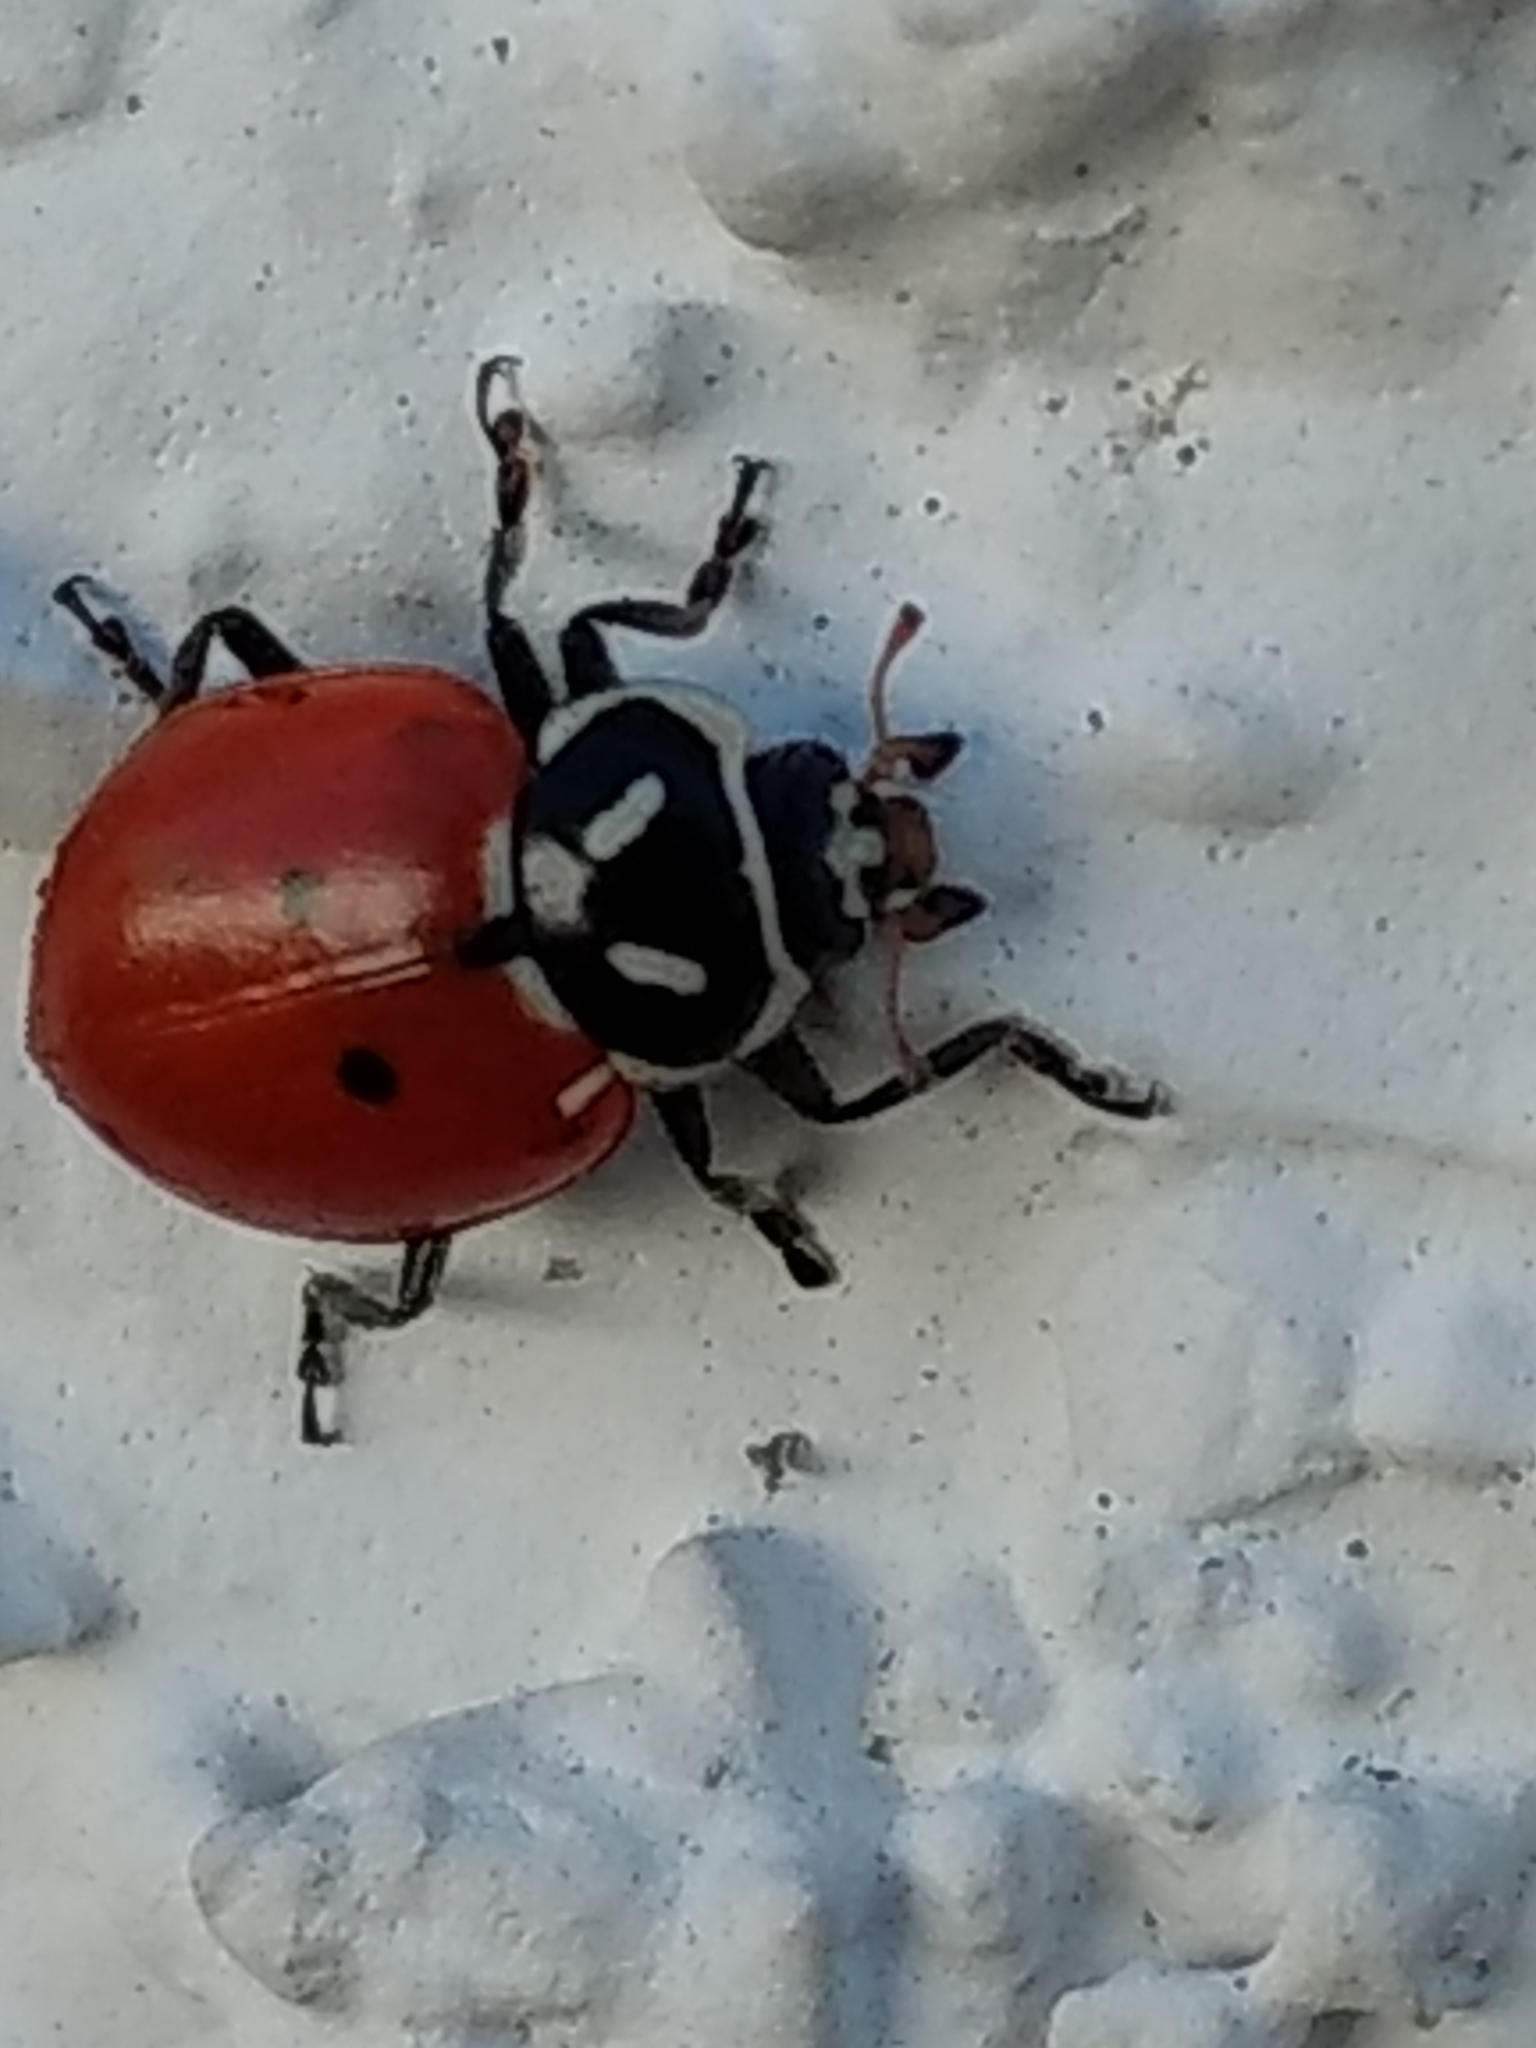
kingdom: Animalia
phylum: Arthropoda
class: Insecta
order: Coleoptera
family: Coccinellidae
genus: Hippodamia
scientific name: Hippodamia convergens
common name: Convergent lady beetle
